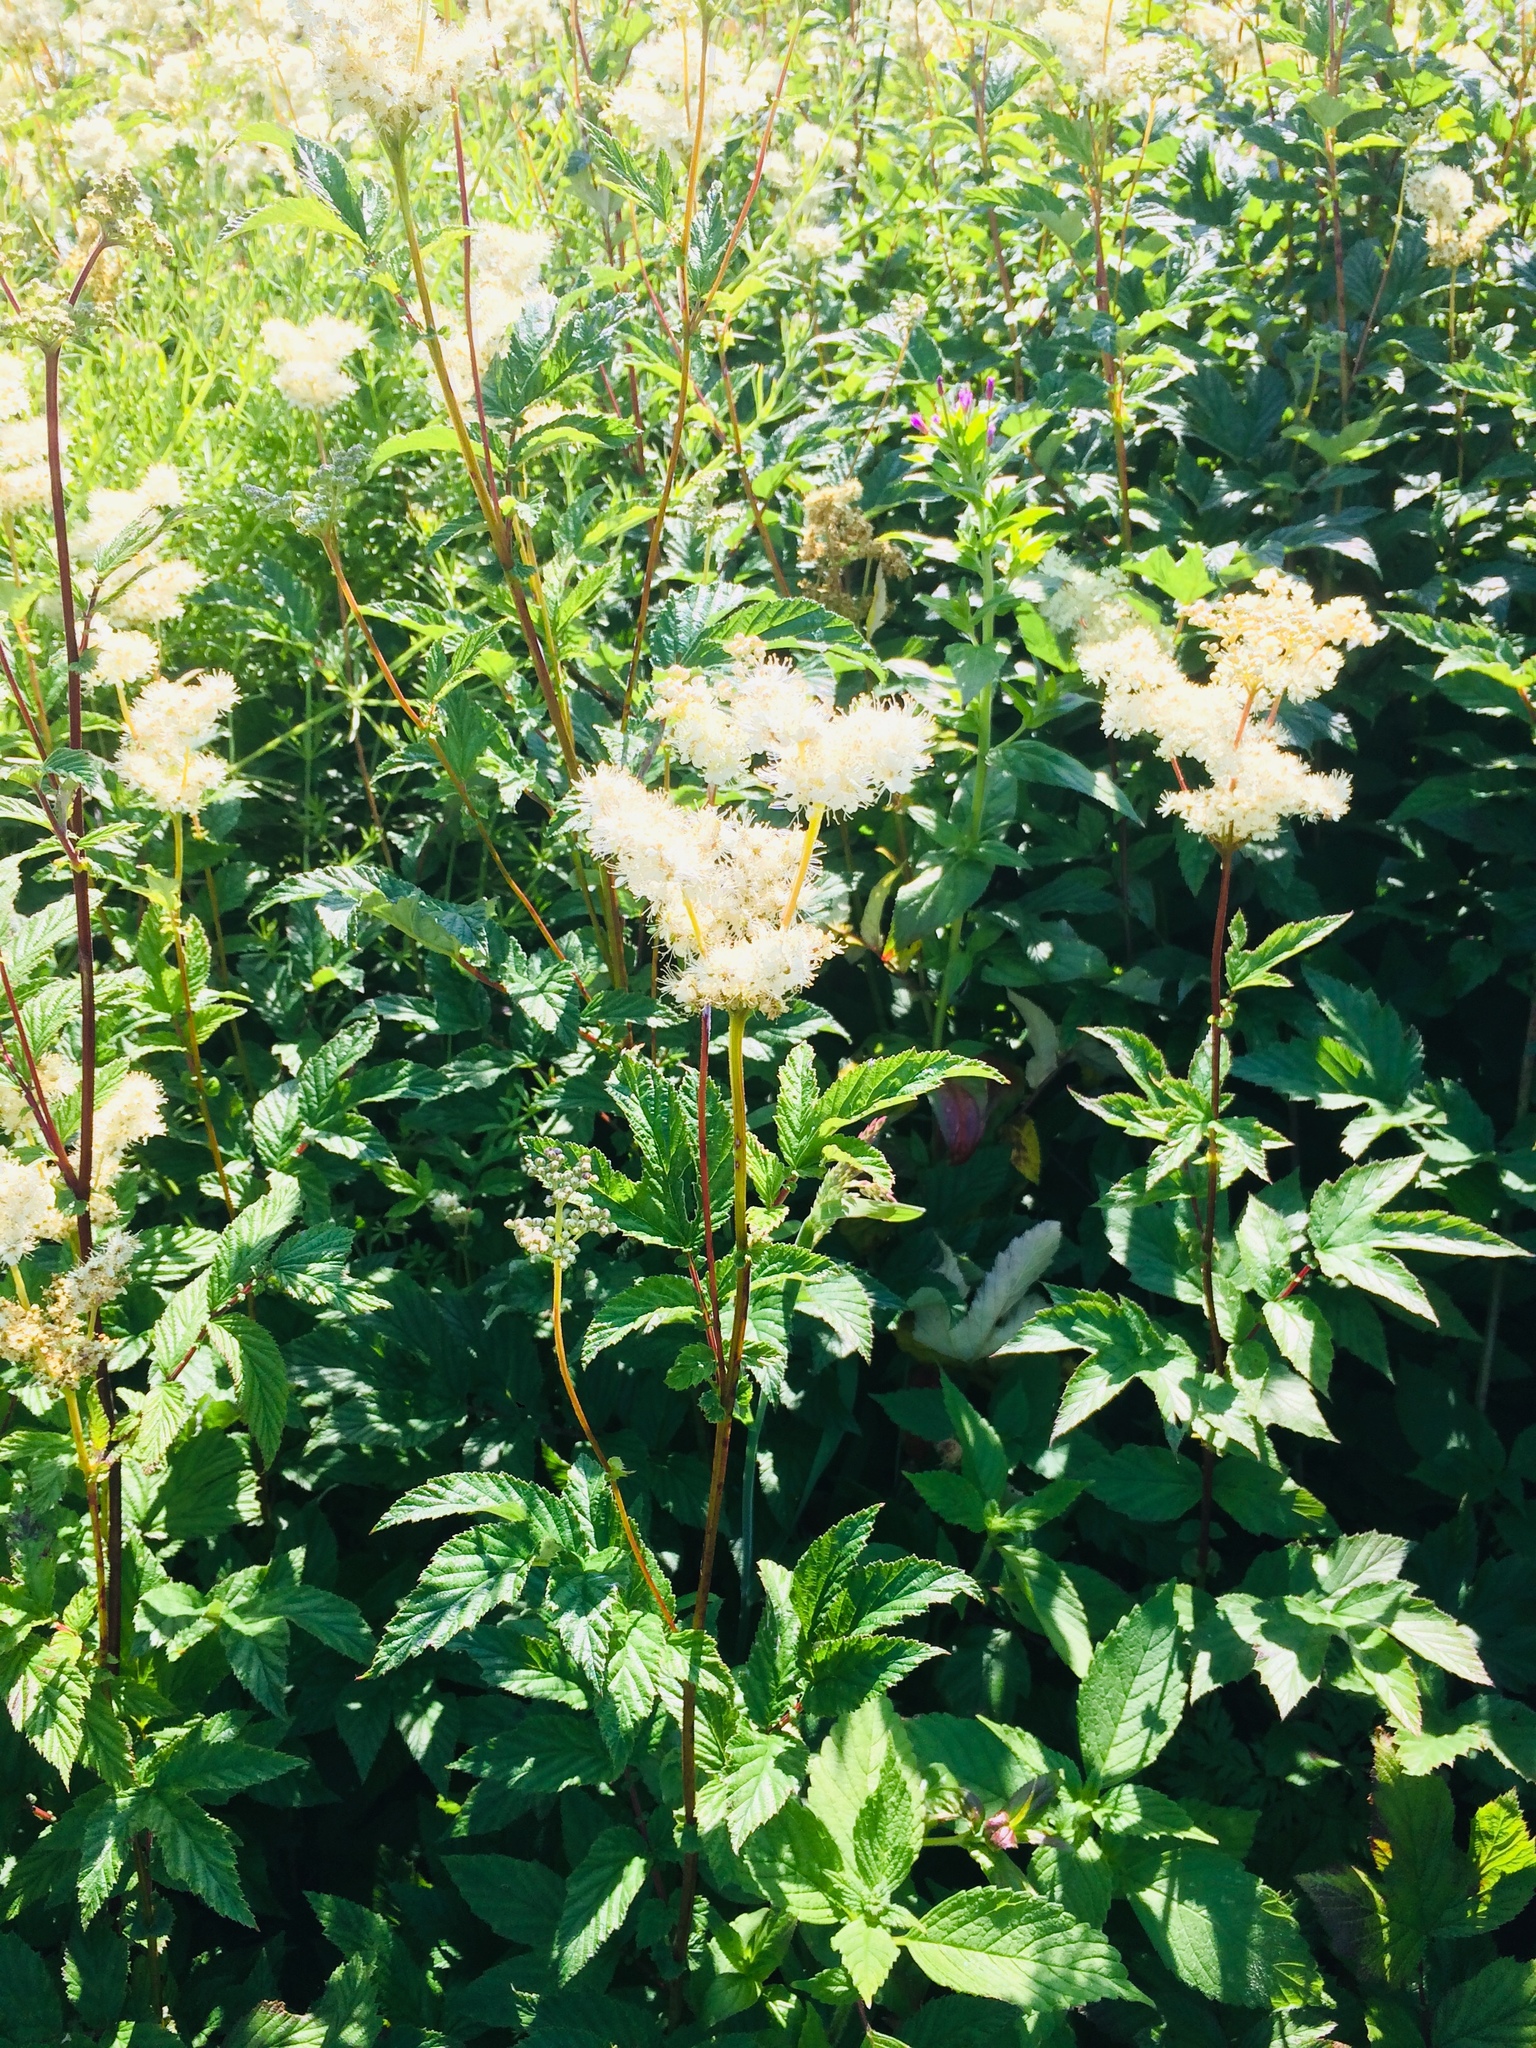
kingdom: Plantae
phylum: Tracheophyta
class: Magnoliopsida
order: Rosales
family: Rosaceae
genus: Filipendula
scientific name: Filipendula ulmaria
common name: Meadowsweet
